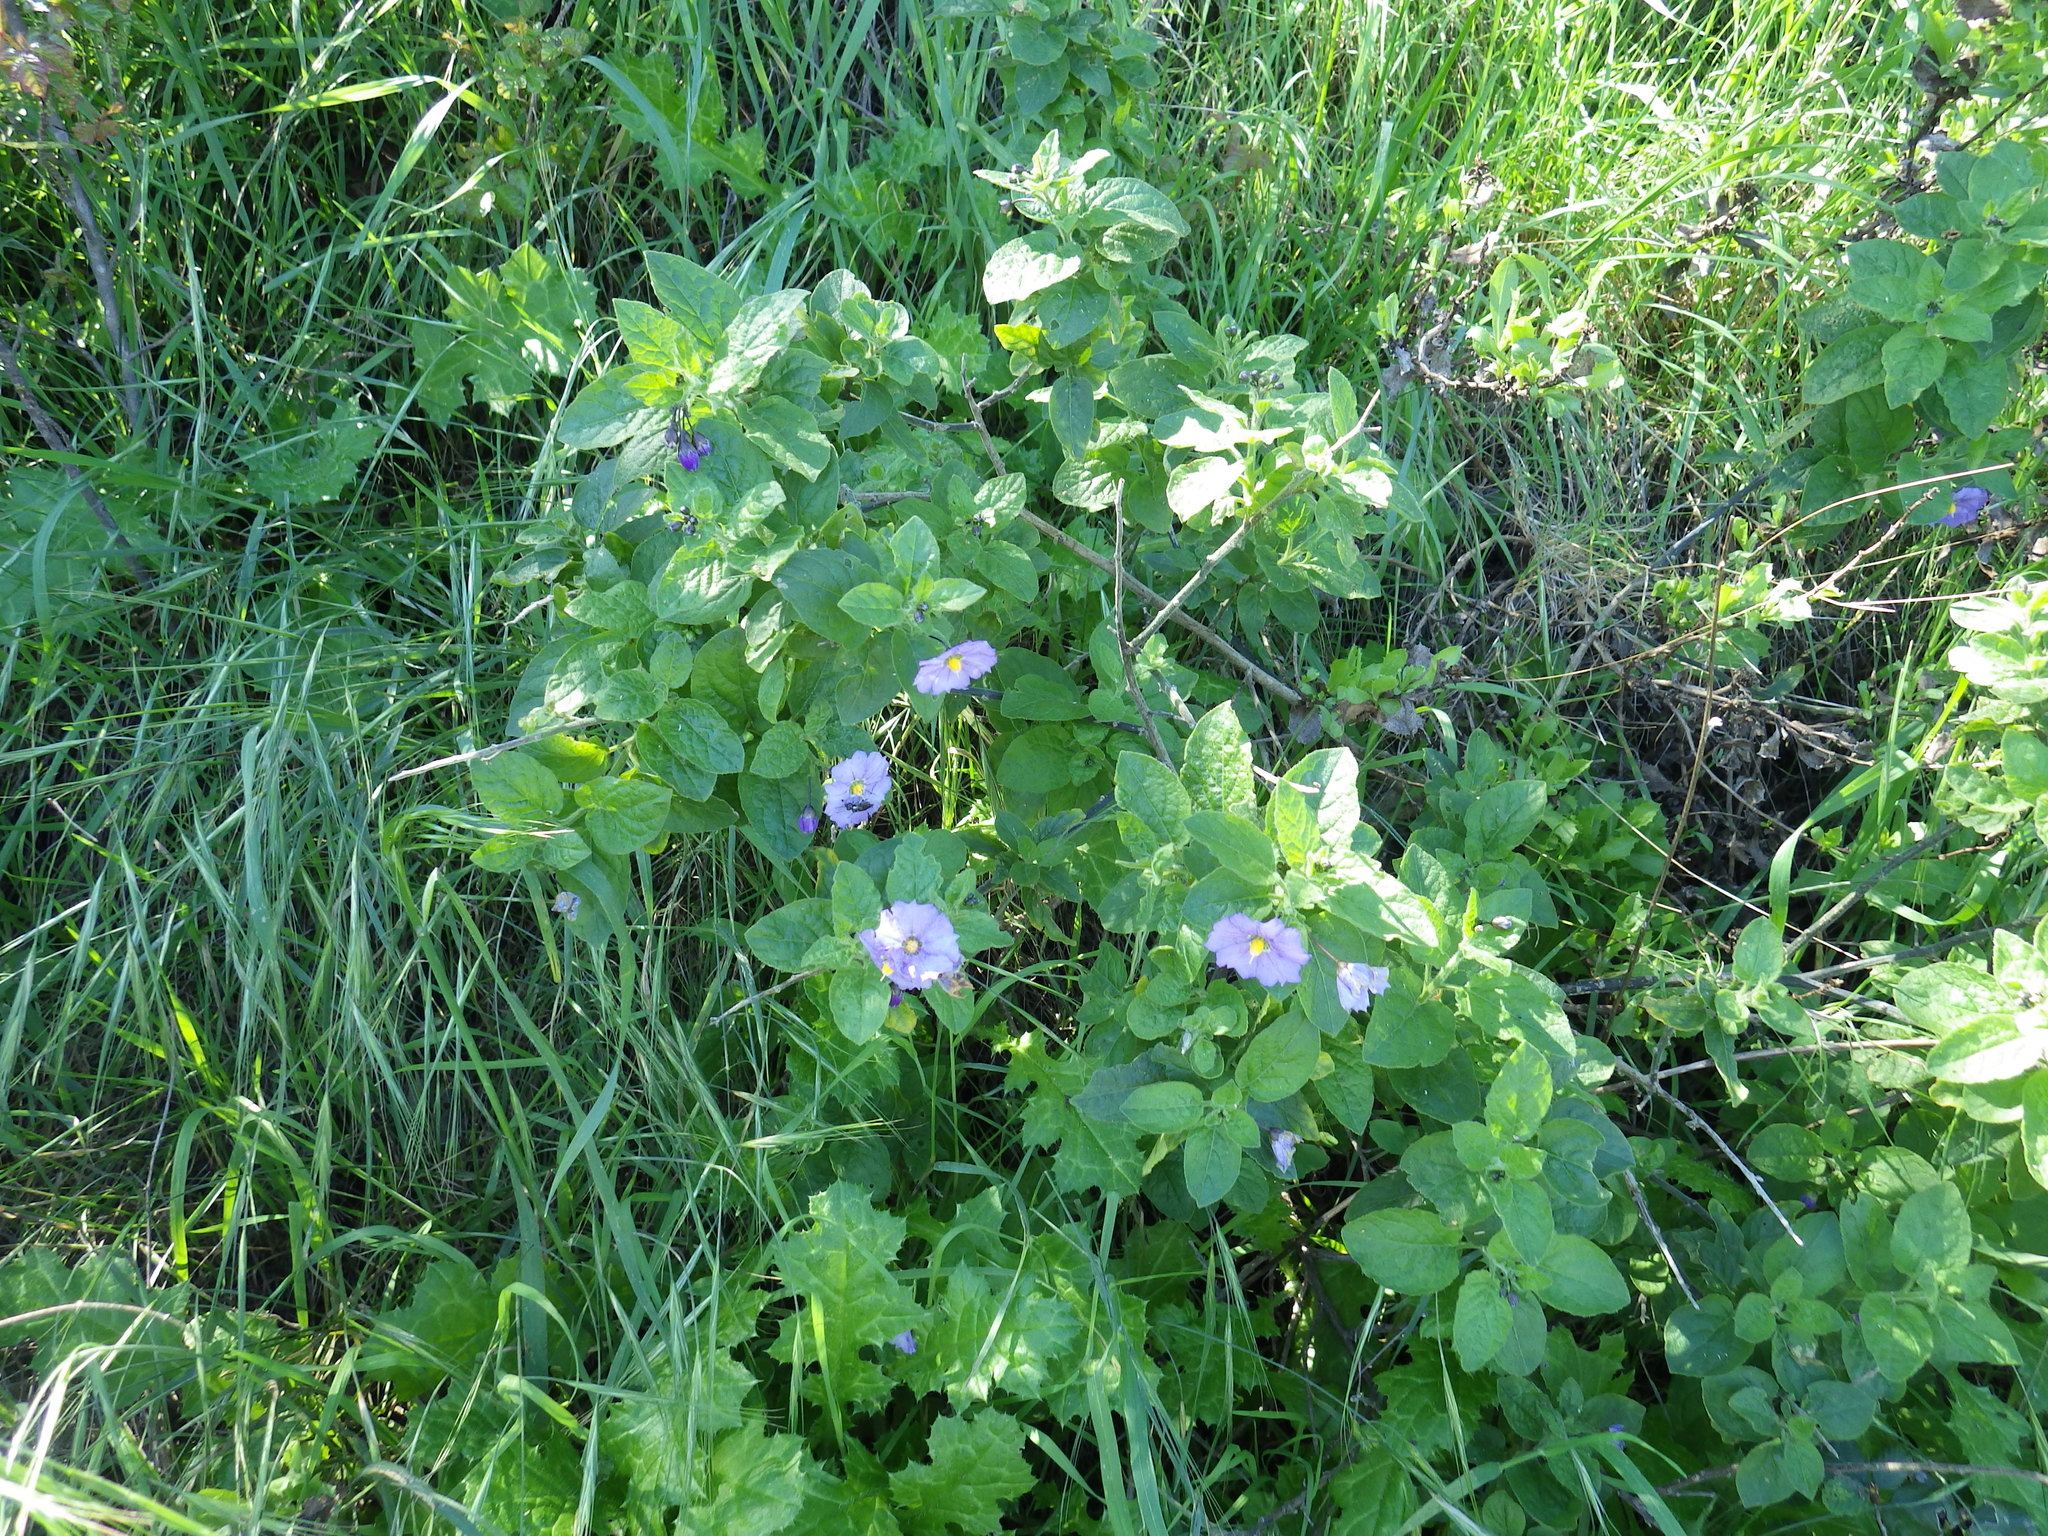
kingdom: Plantae
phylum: Tracheophyta
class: Magnoliopsida
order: Solanales
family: Solanaceae
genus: Solanum
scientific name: Solanum umbelliferum
